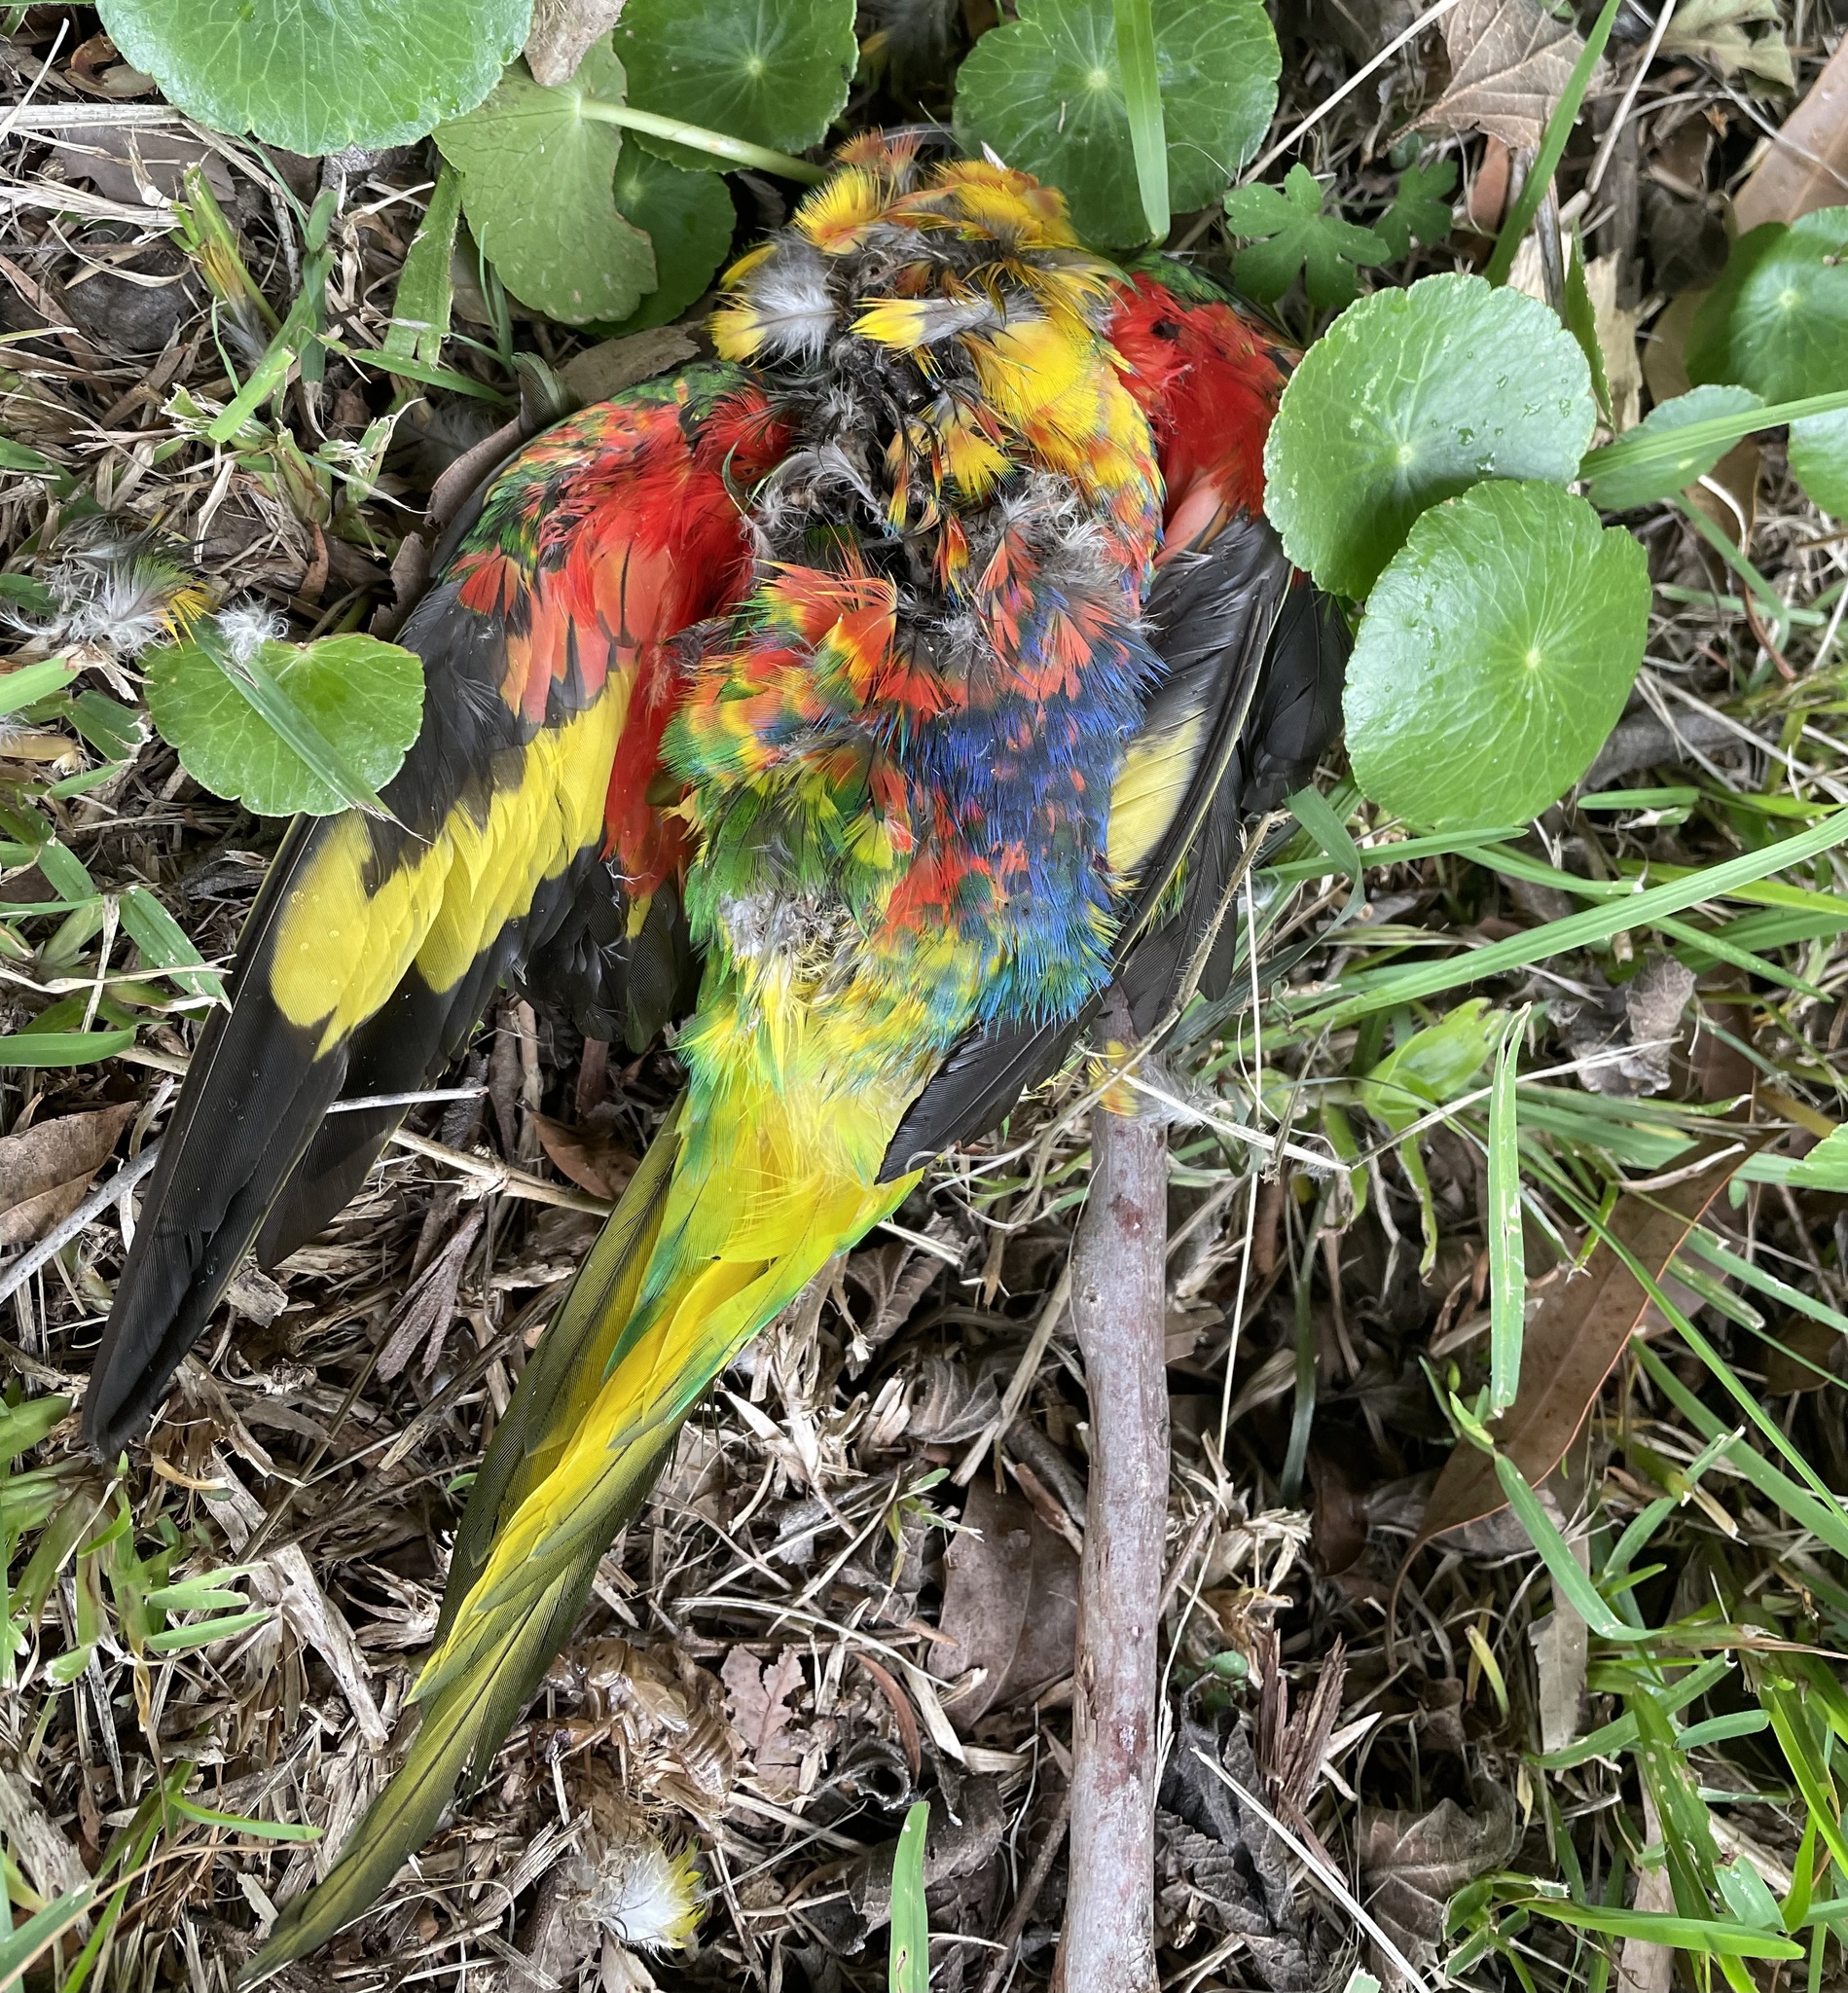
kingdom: Animalia
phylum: Chordata
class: Aves
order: Psittaciformes
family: Psittacidae
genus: Trichoglossus
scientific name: Trichoglossus haematodus
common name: Coconut lorikeet
